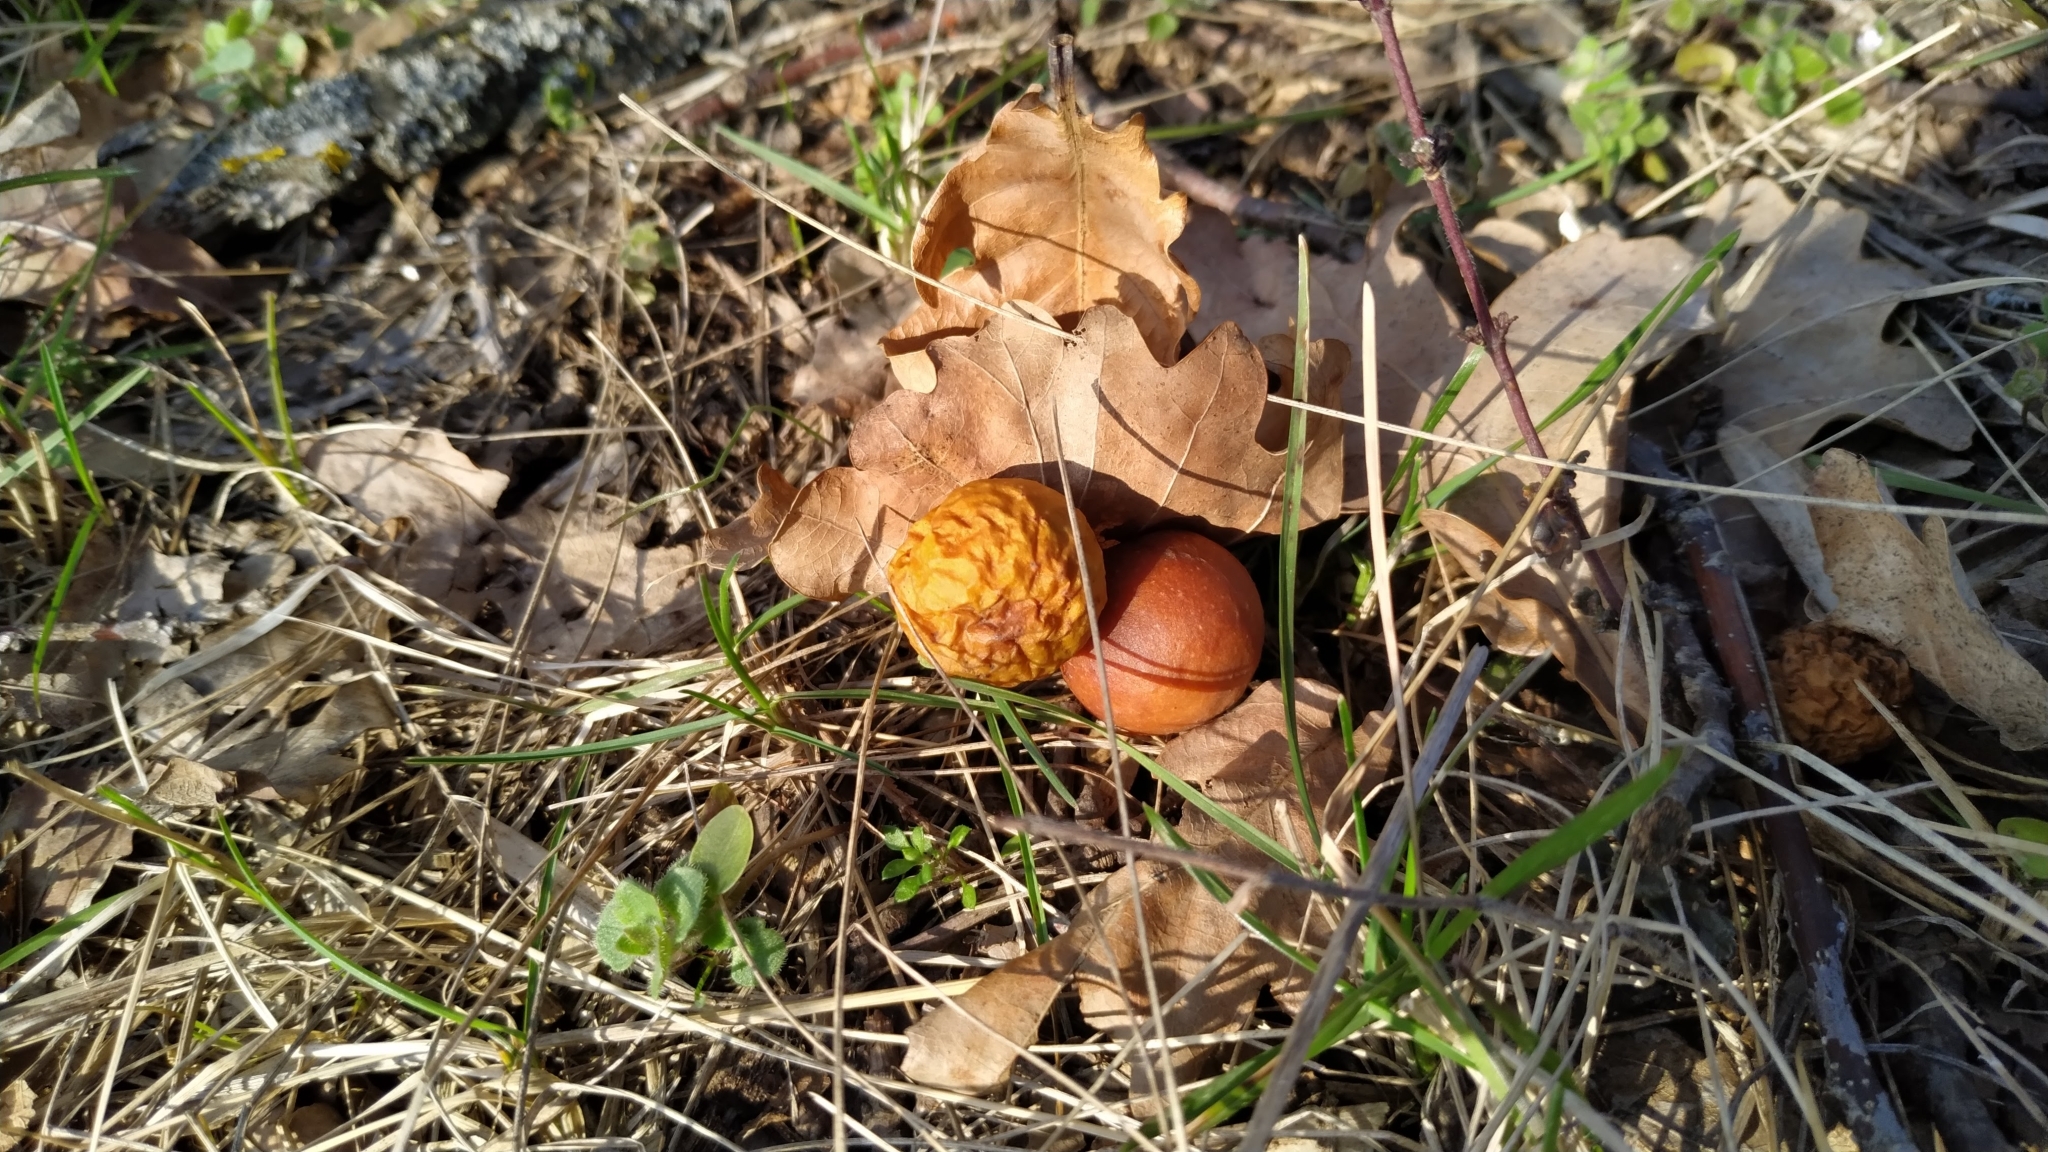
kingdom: Animalia
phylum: Arthropoda
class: Insecta
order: Hymenoptera
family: Cynipidae
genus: Cynips
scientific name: Cynips quercusfolii
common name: Cherry gall
